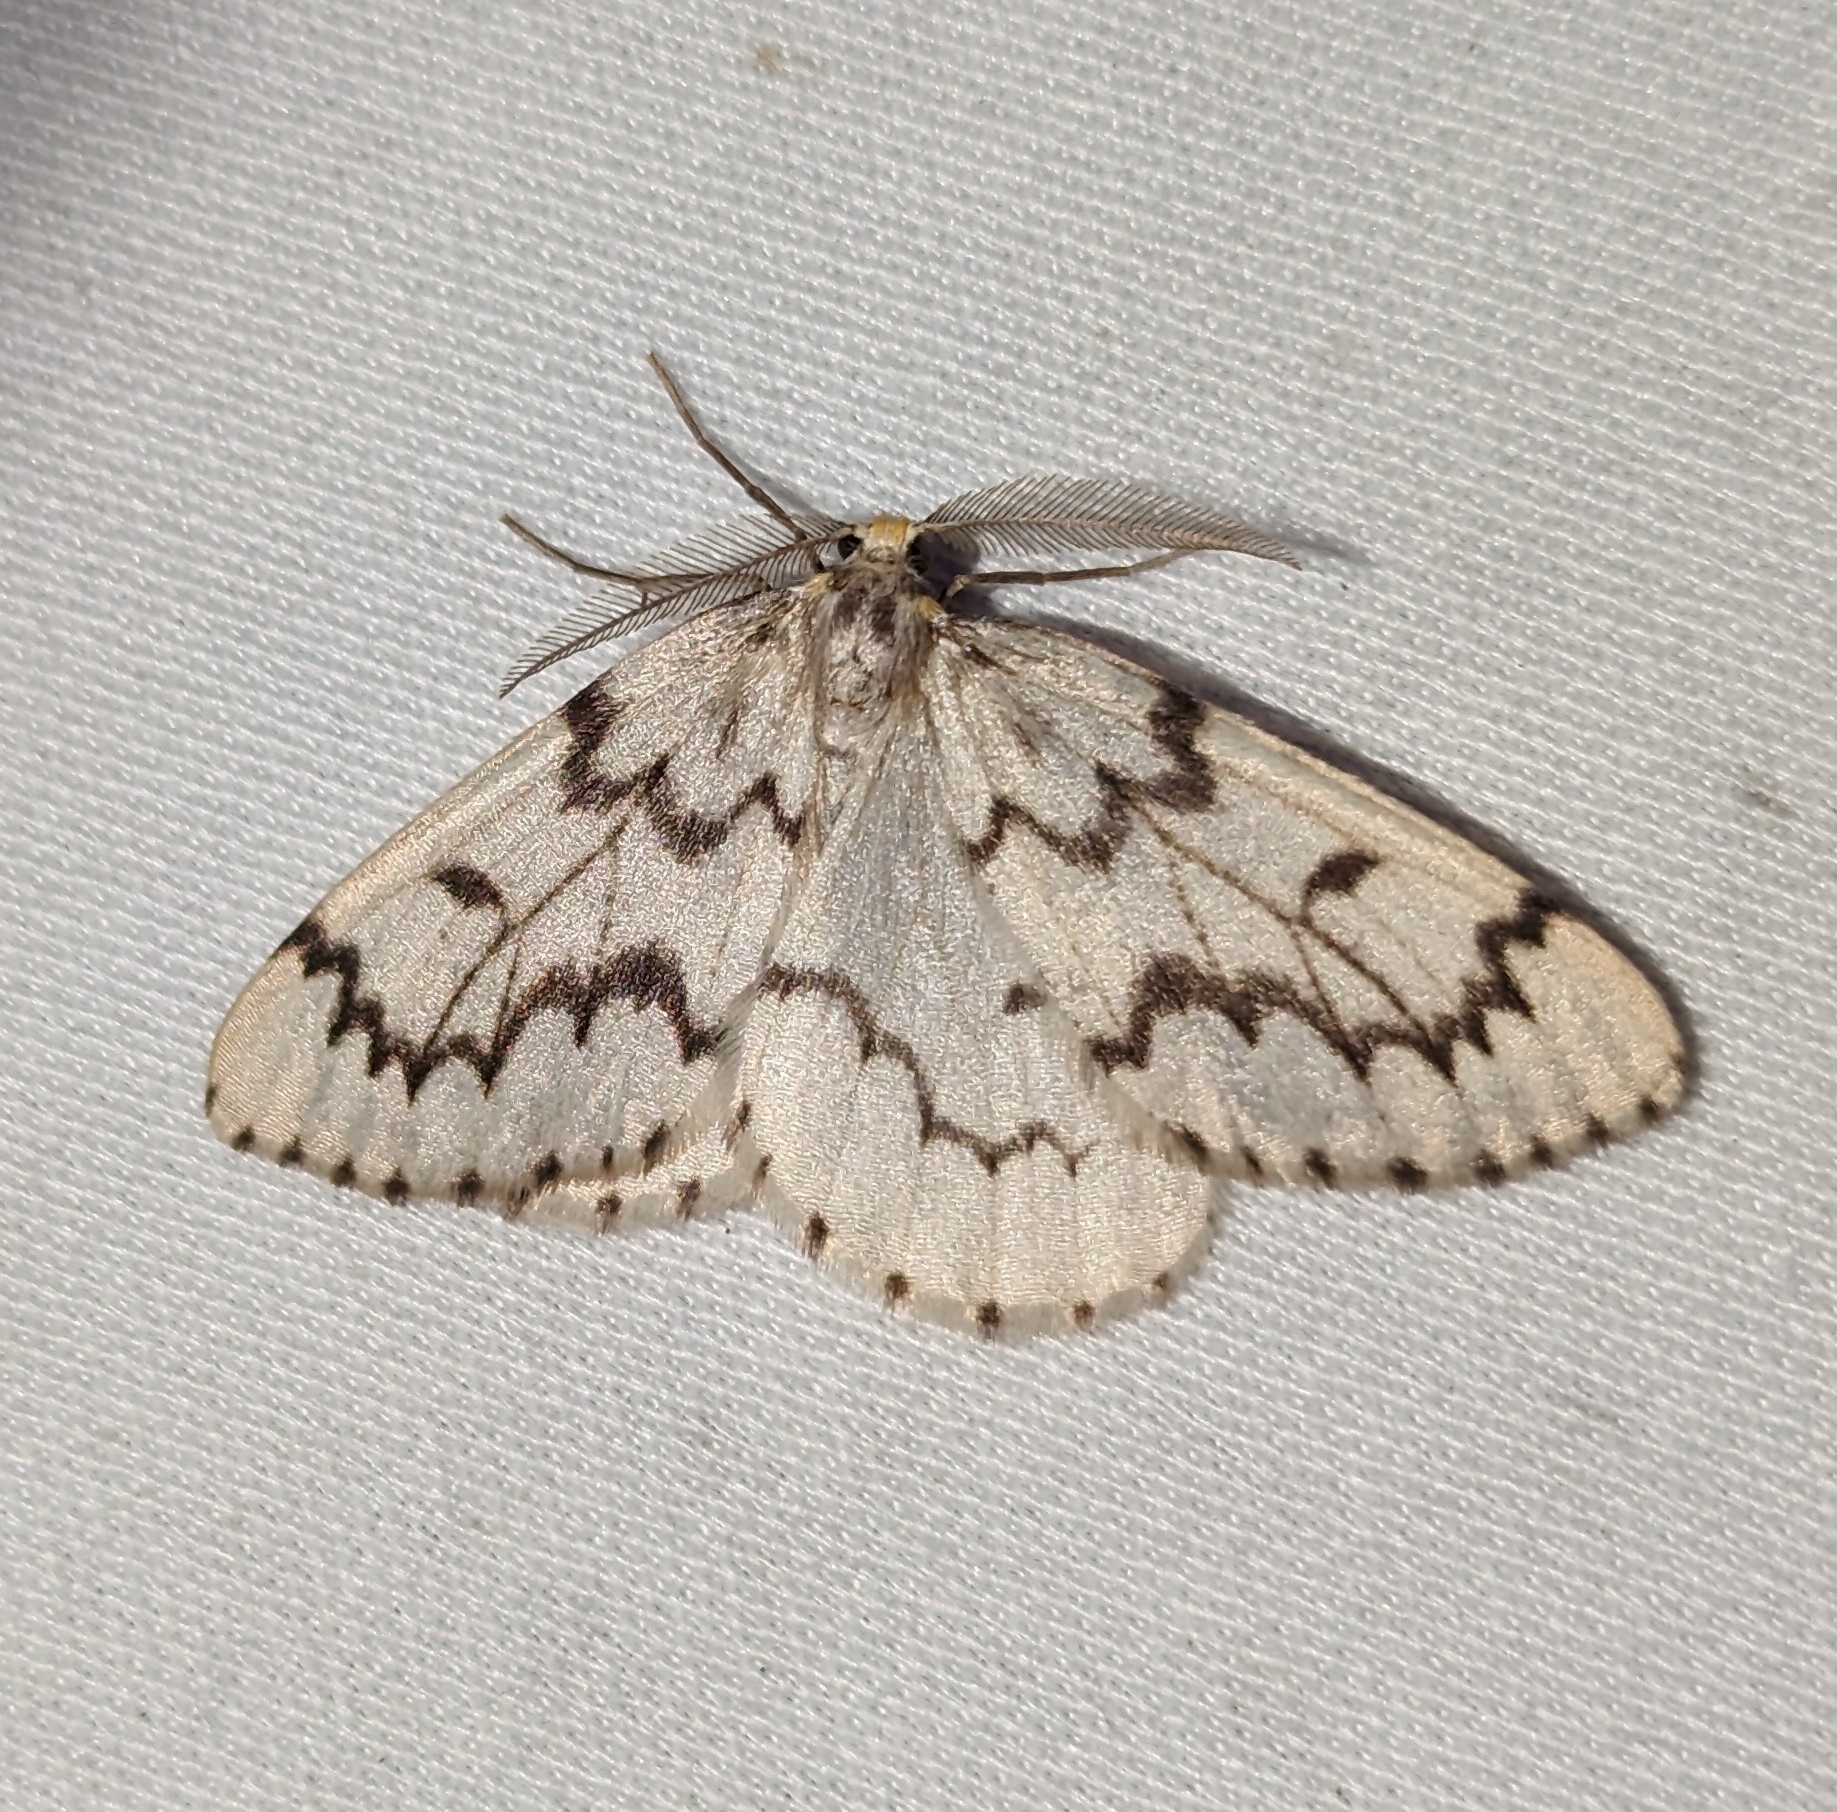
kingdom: Animalia
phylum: Arthropoda
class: Insecta
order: Lepidoptera
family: Geometridae
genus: Nepytia
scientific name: Nepytia phantasmaria
